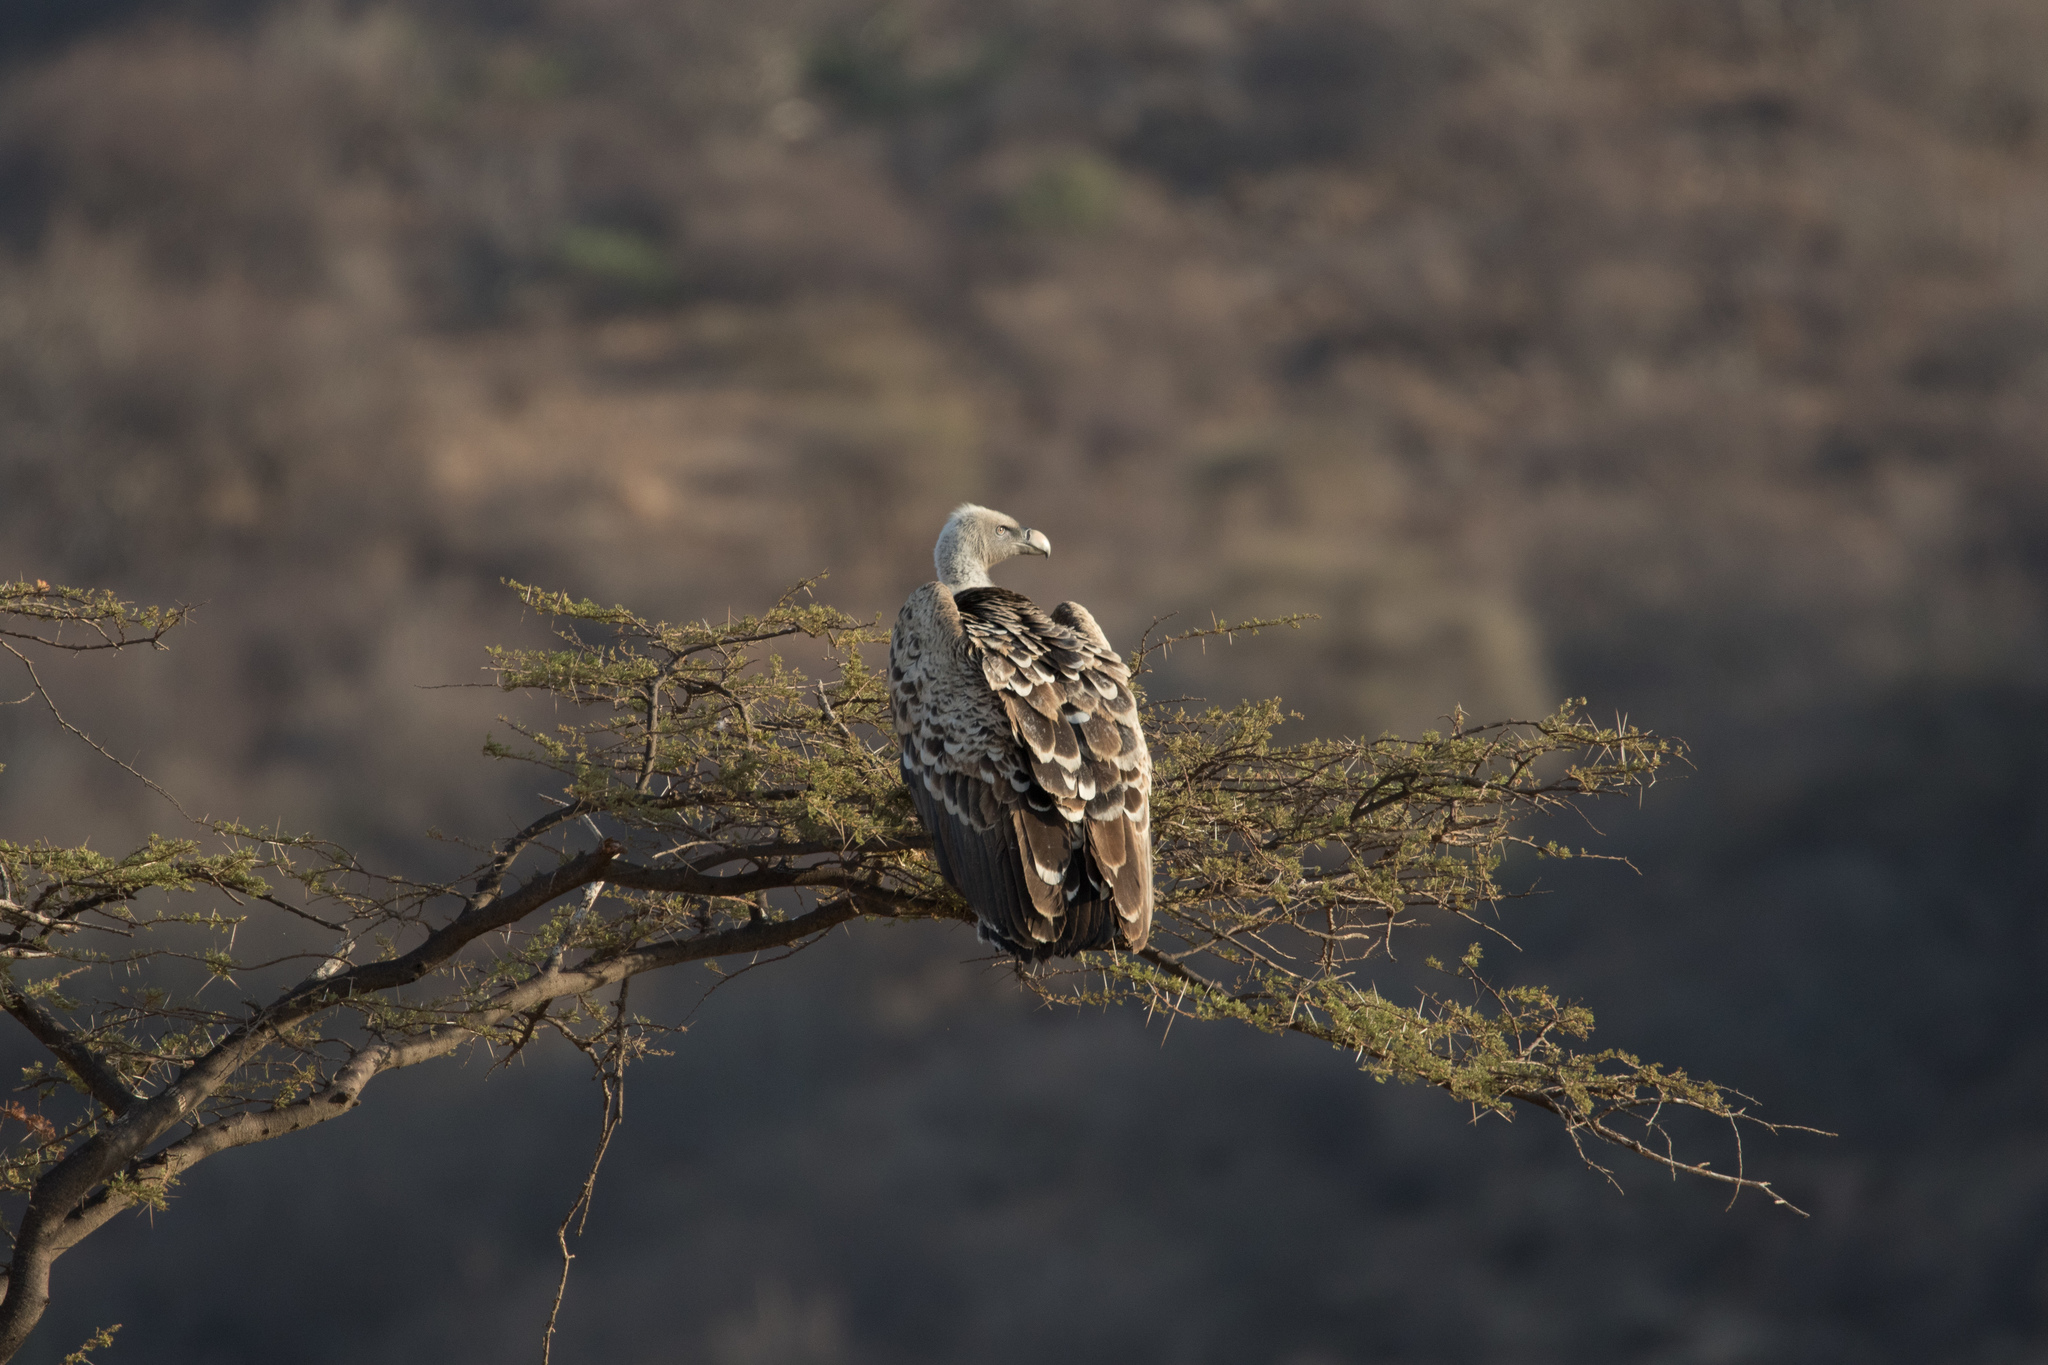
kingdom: Animalia
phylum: Chordata
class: Aves
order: Accipitriformes
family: Accipitridae
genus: Gyps
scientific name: Gyps rueppellii
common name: Rüppell's vulture
